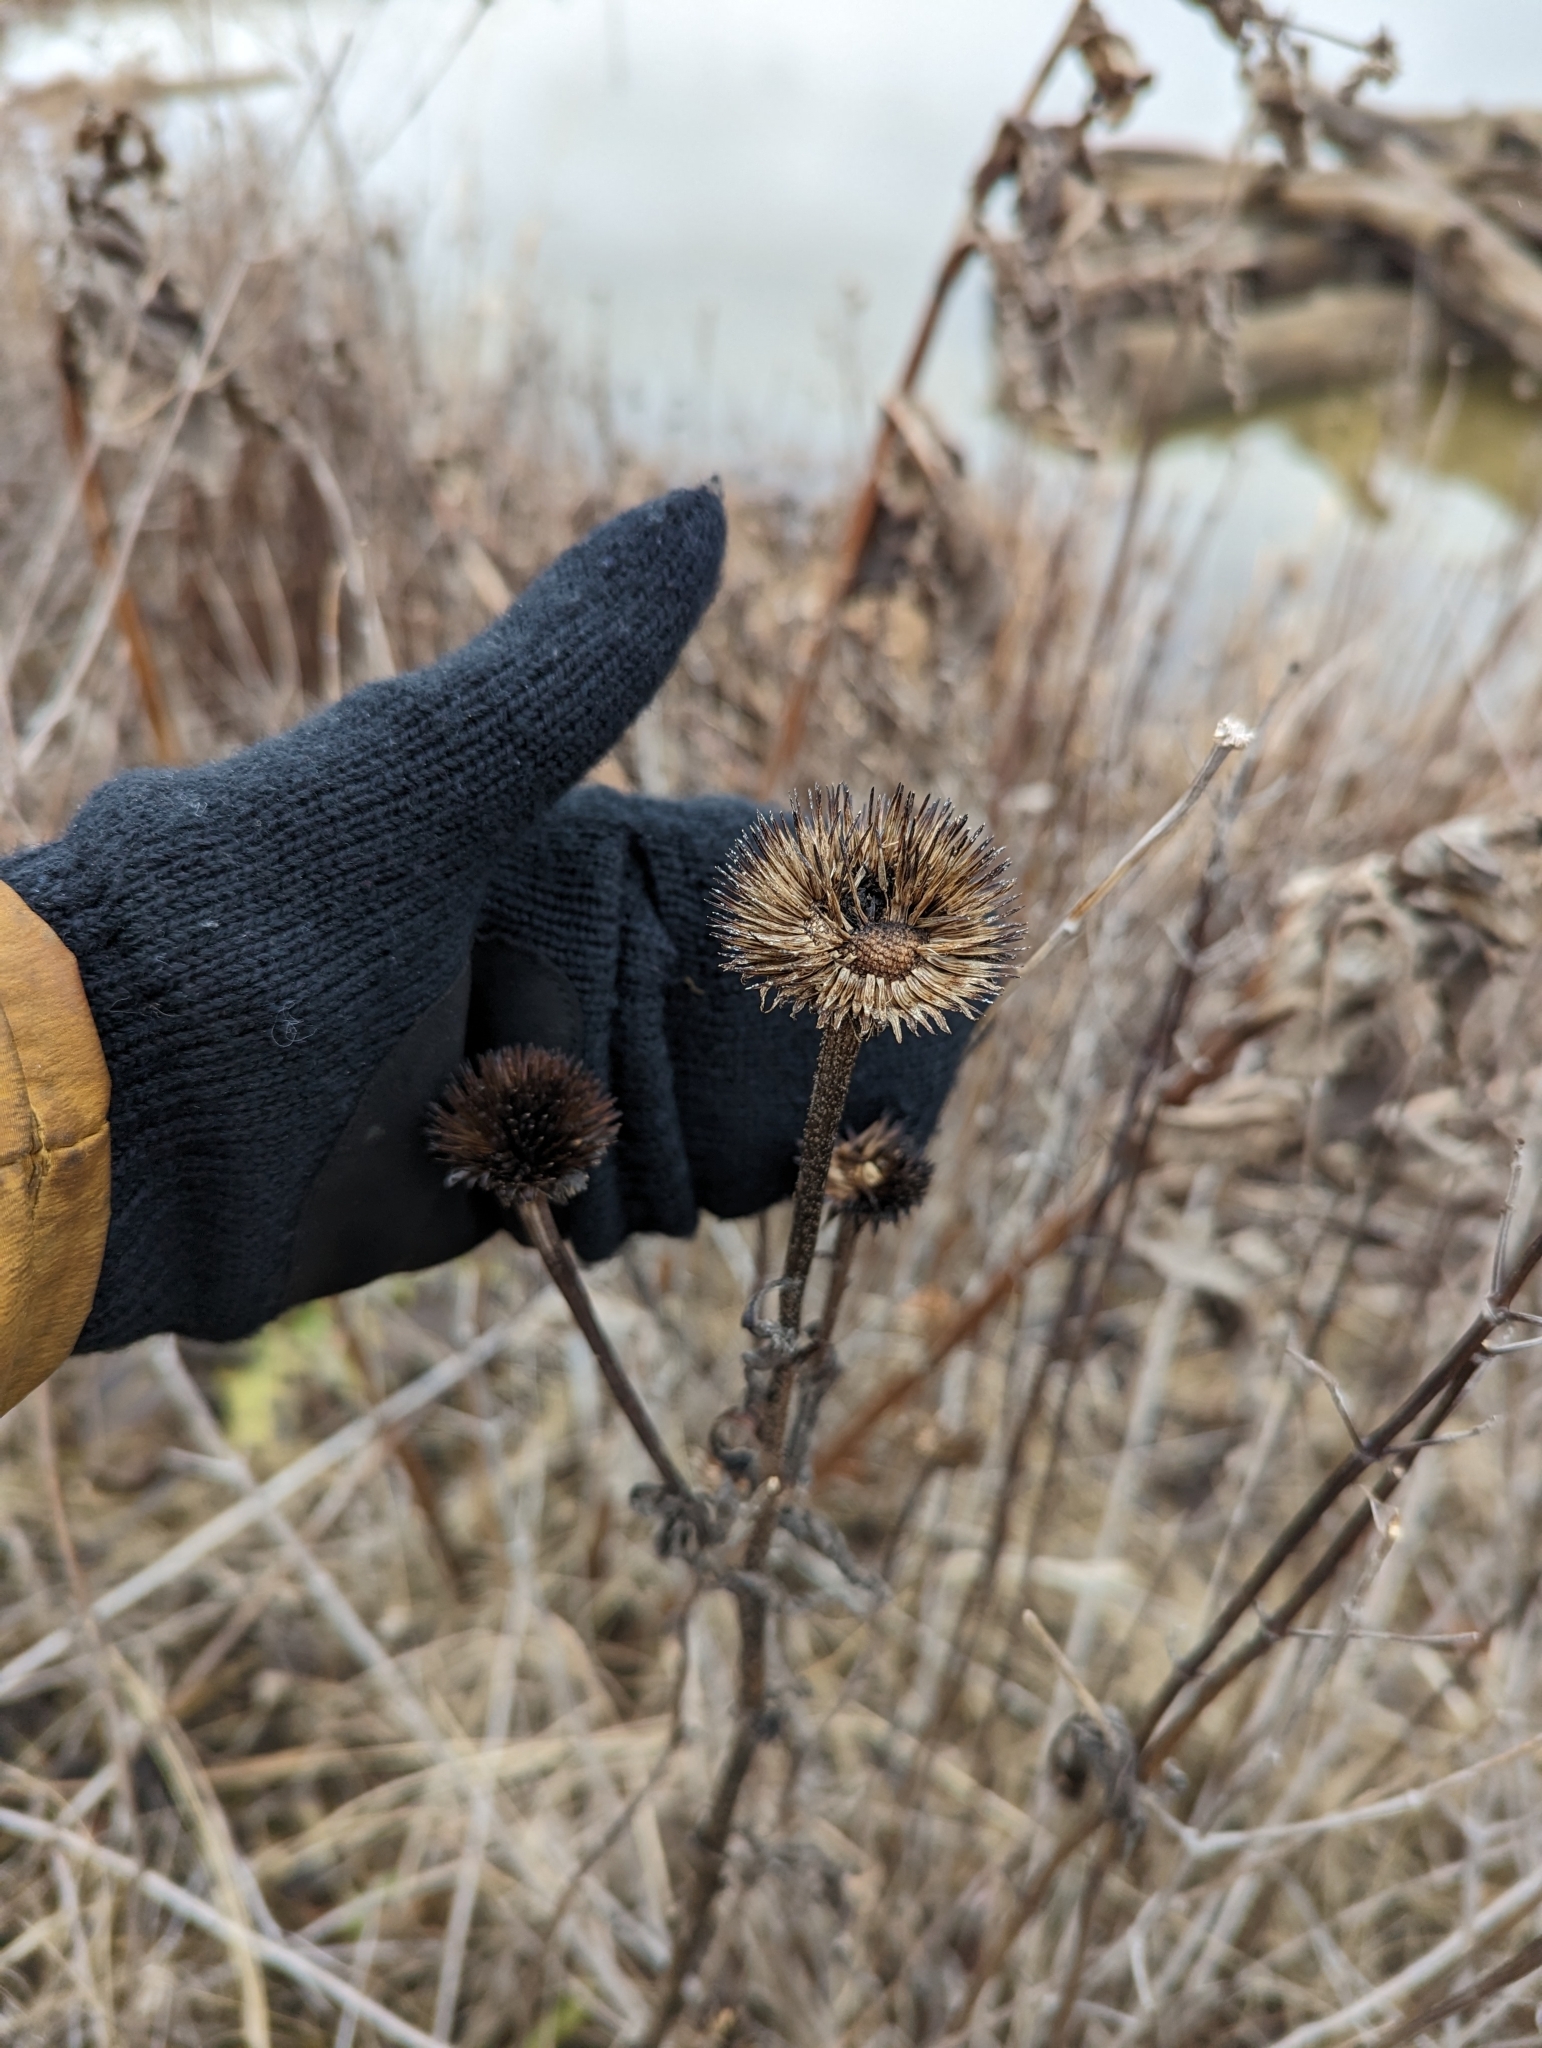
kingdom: Plantae
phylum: Tracheophyta
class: Magnoliopsida
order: Asterales
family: Asteraceae
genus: Echinacea
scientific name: Echinacea purpurea
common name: Broad-leaved purple coneflower
